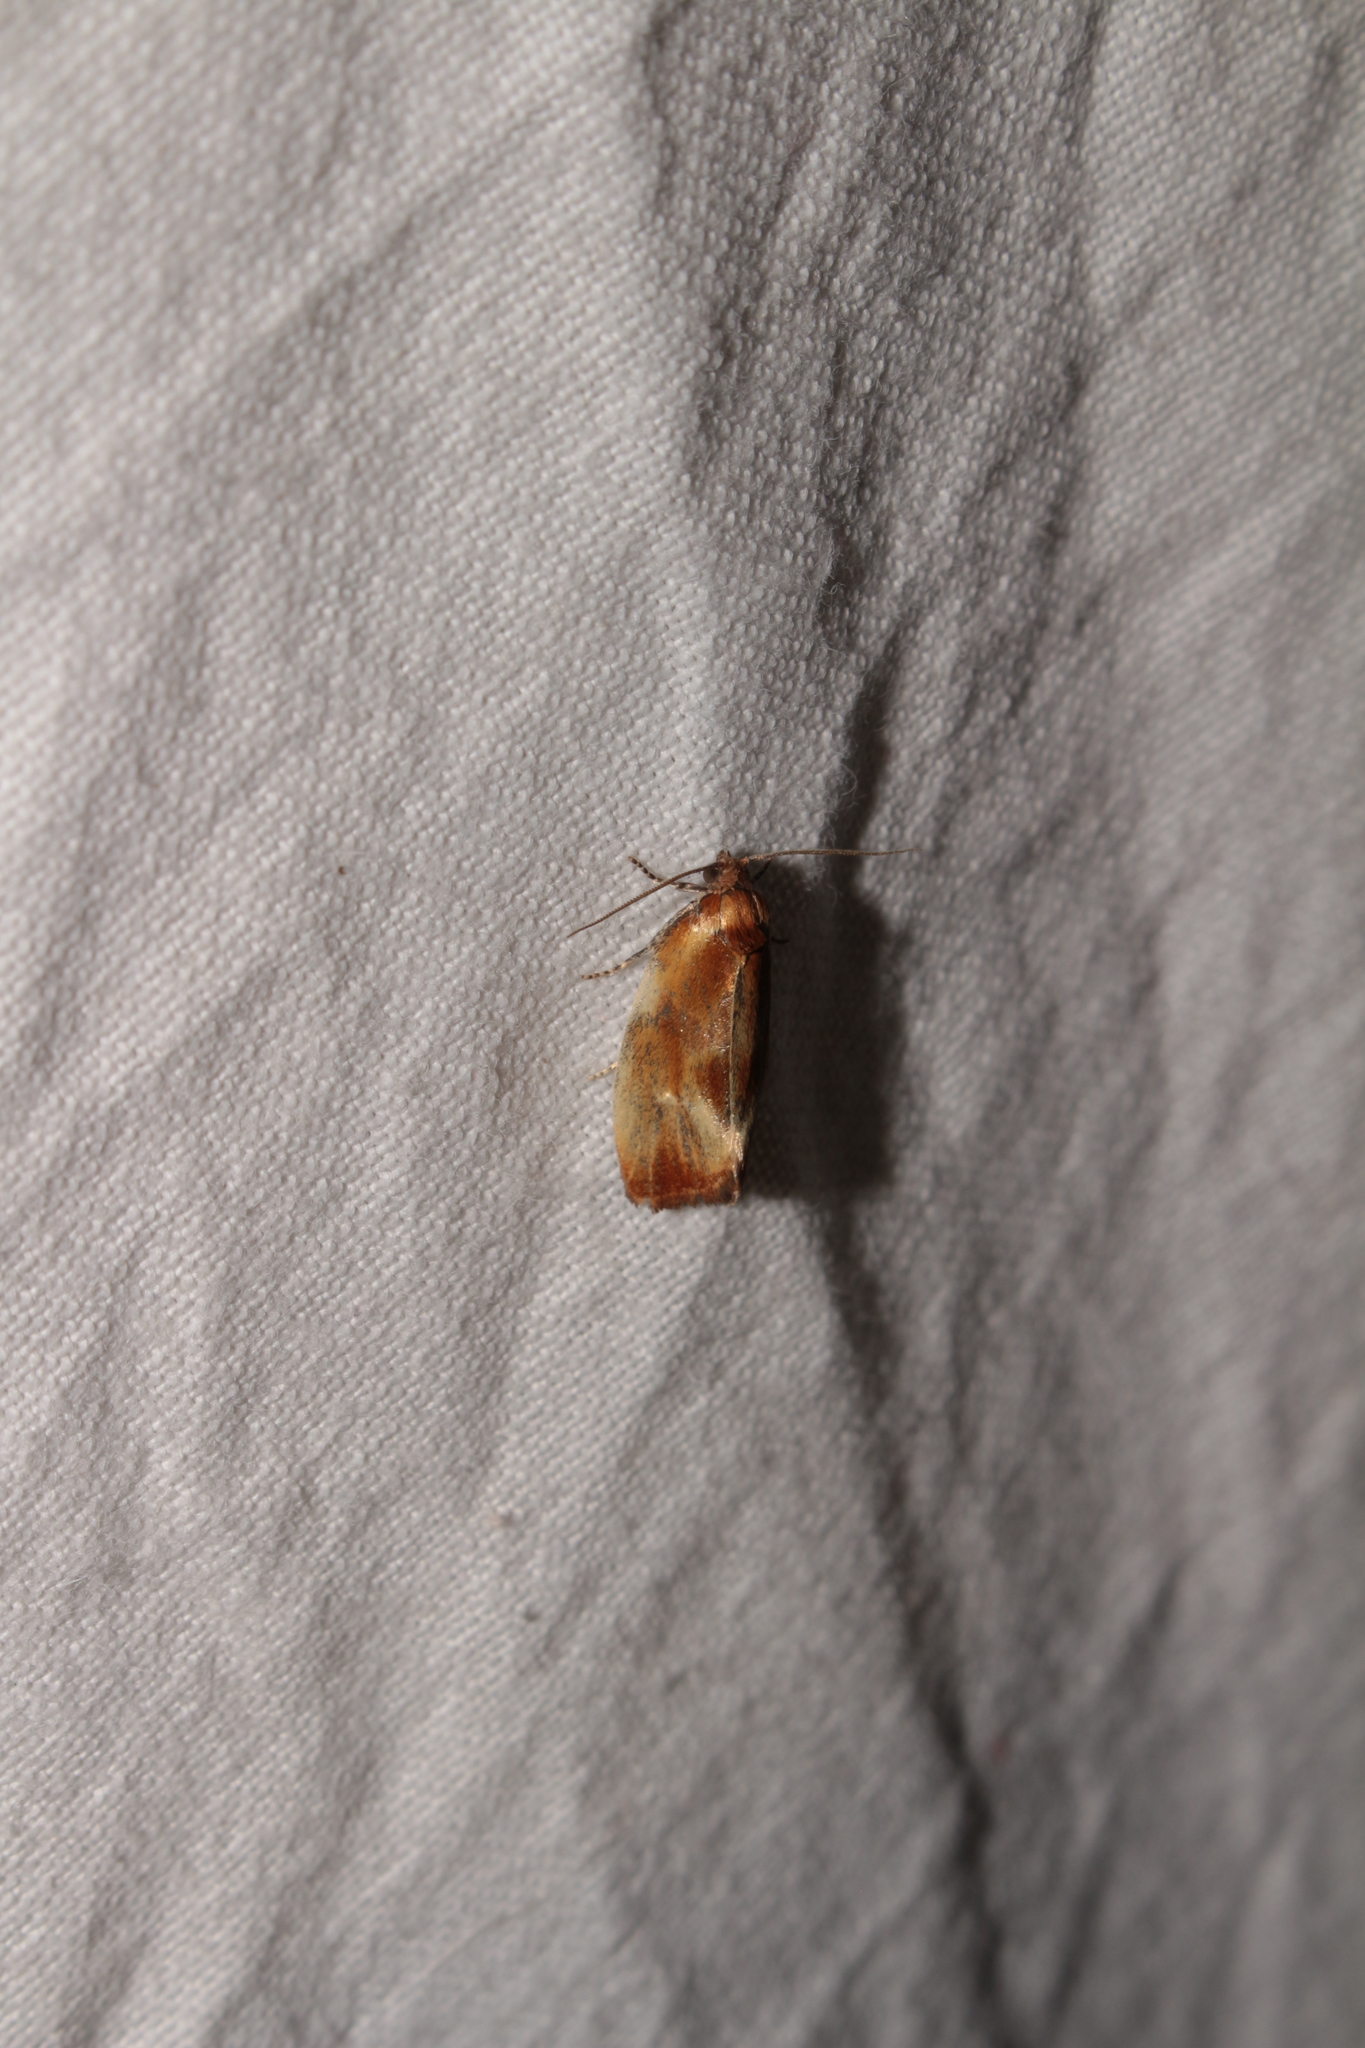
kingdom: Animalia
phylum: Arthropoda
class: Insecta
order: Lepidoptera
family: Tortricidae
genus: Eulia
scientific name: Eulia ministrana
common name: Brassy twist
